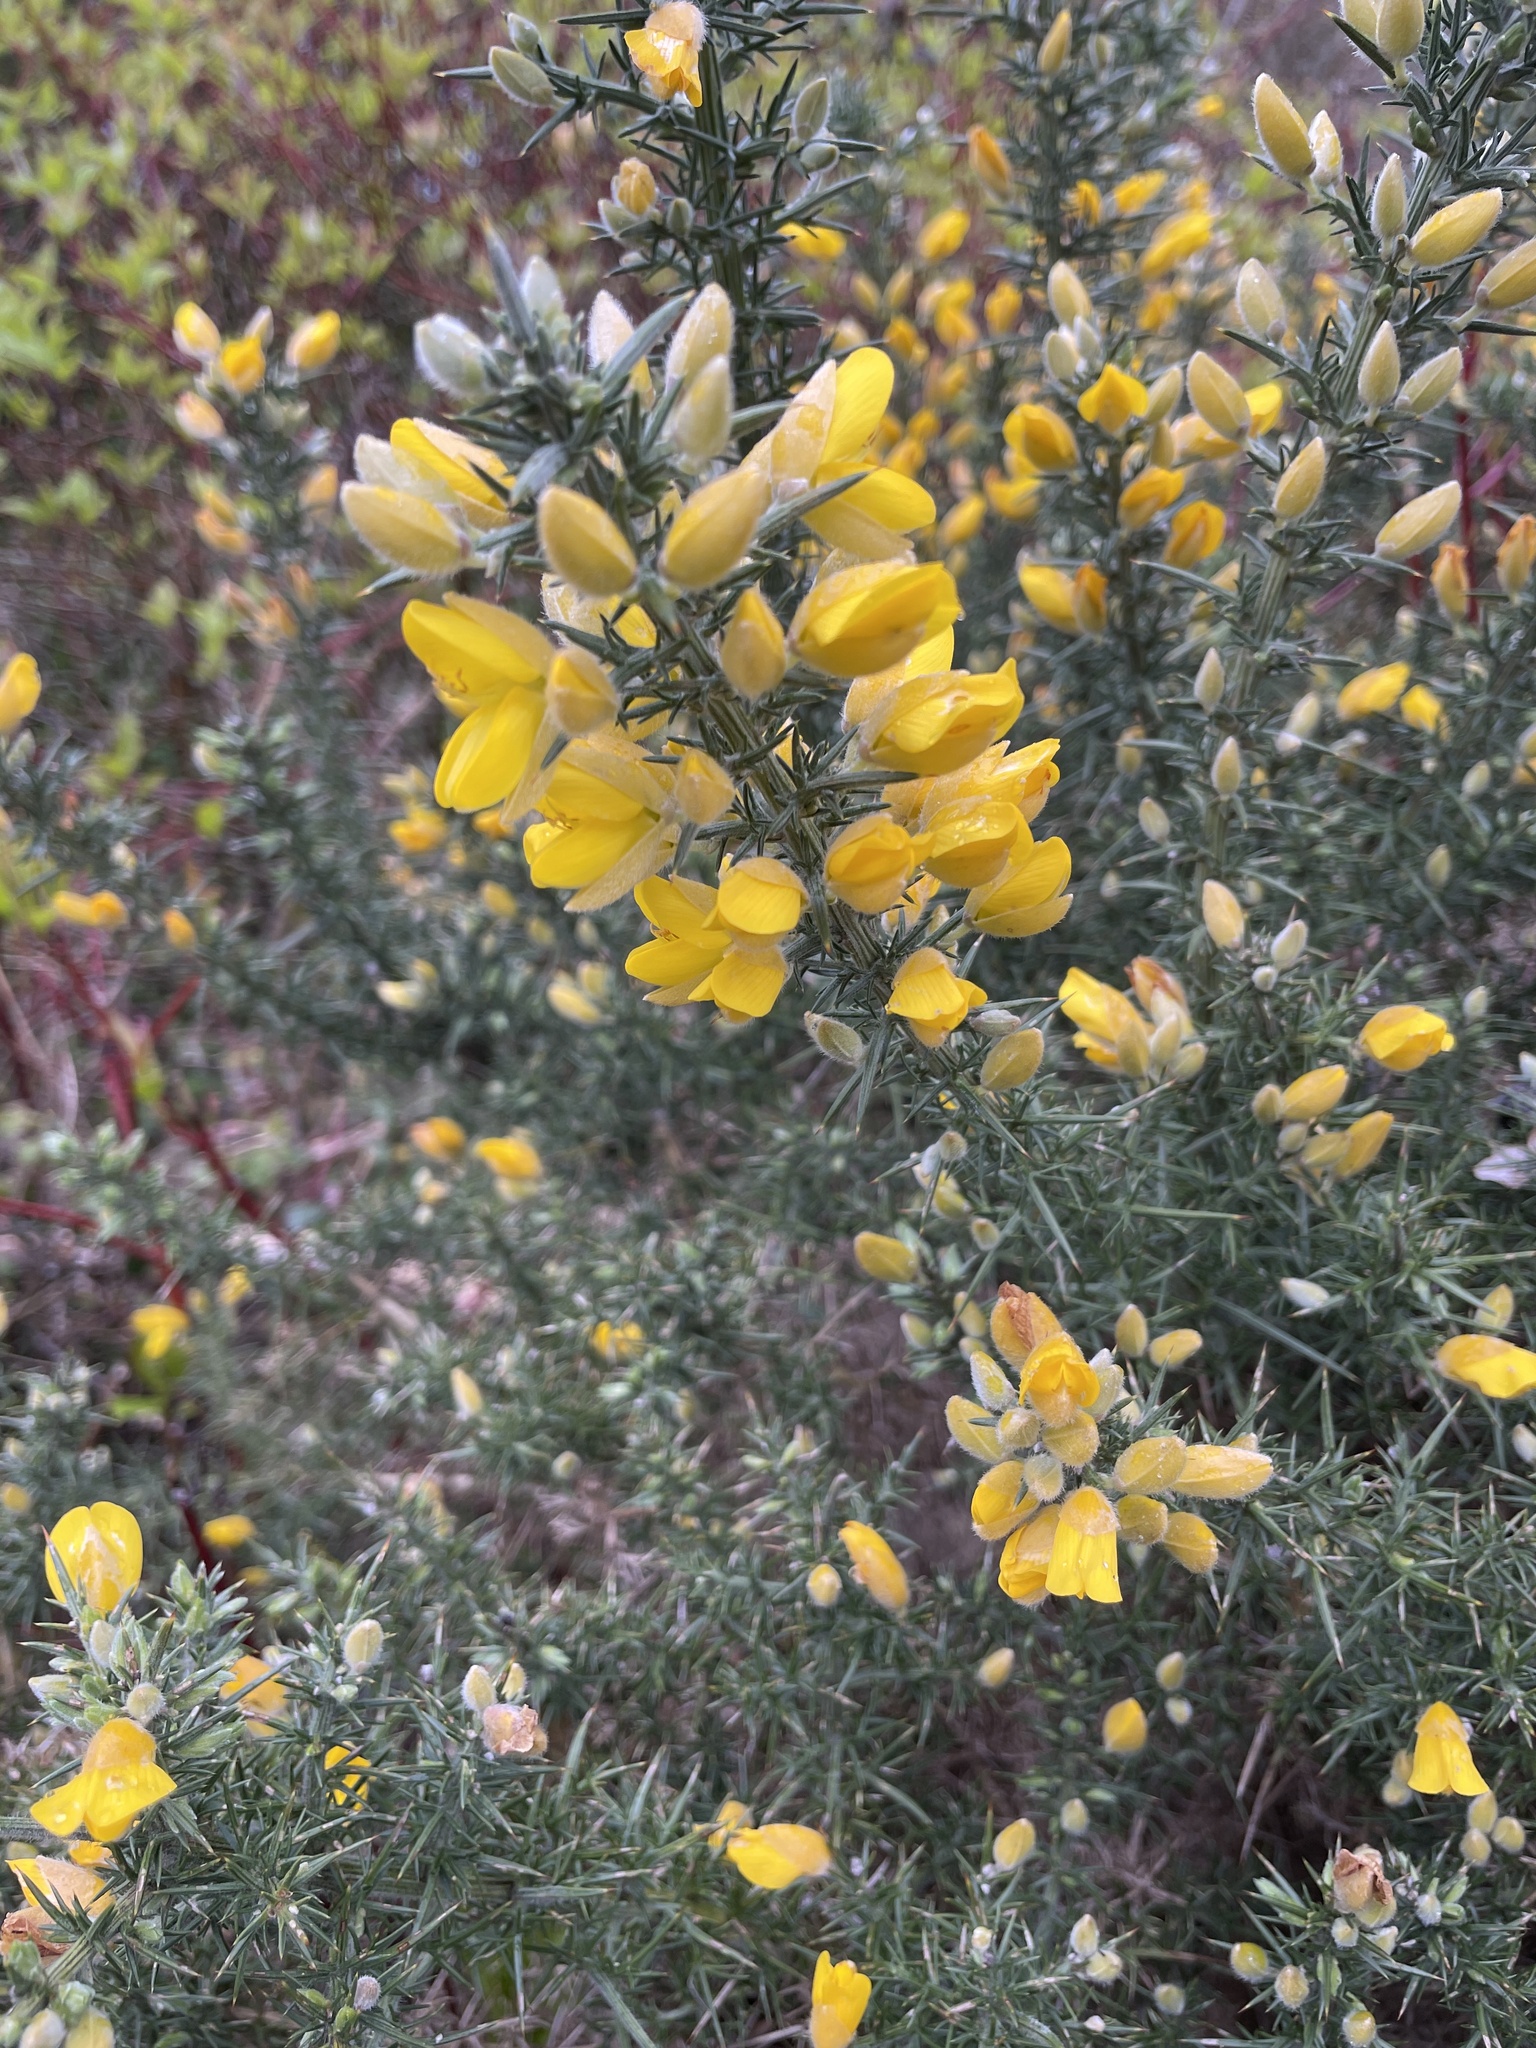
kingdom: Plantae
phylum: Tracheophyta
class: Magnoliopsida
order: Fabales
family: Fabaceae
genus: Ulex
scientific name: Ulex europaeus
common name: Common gorse
